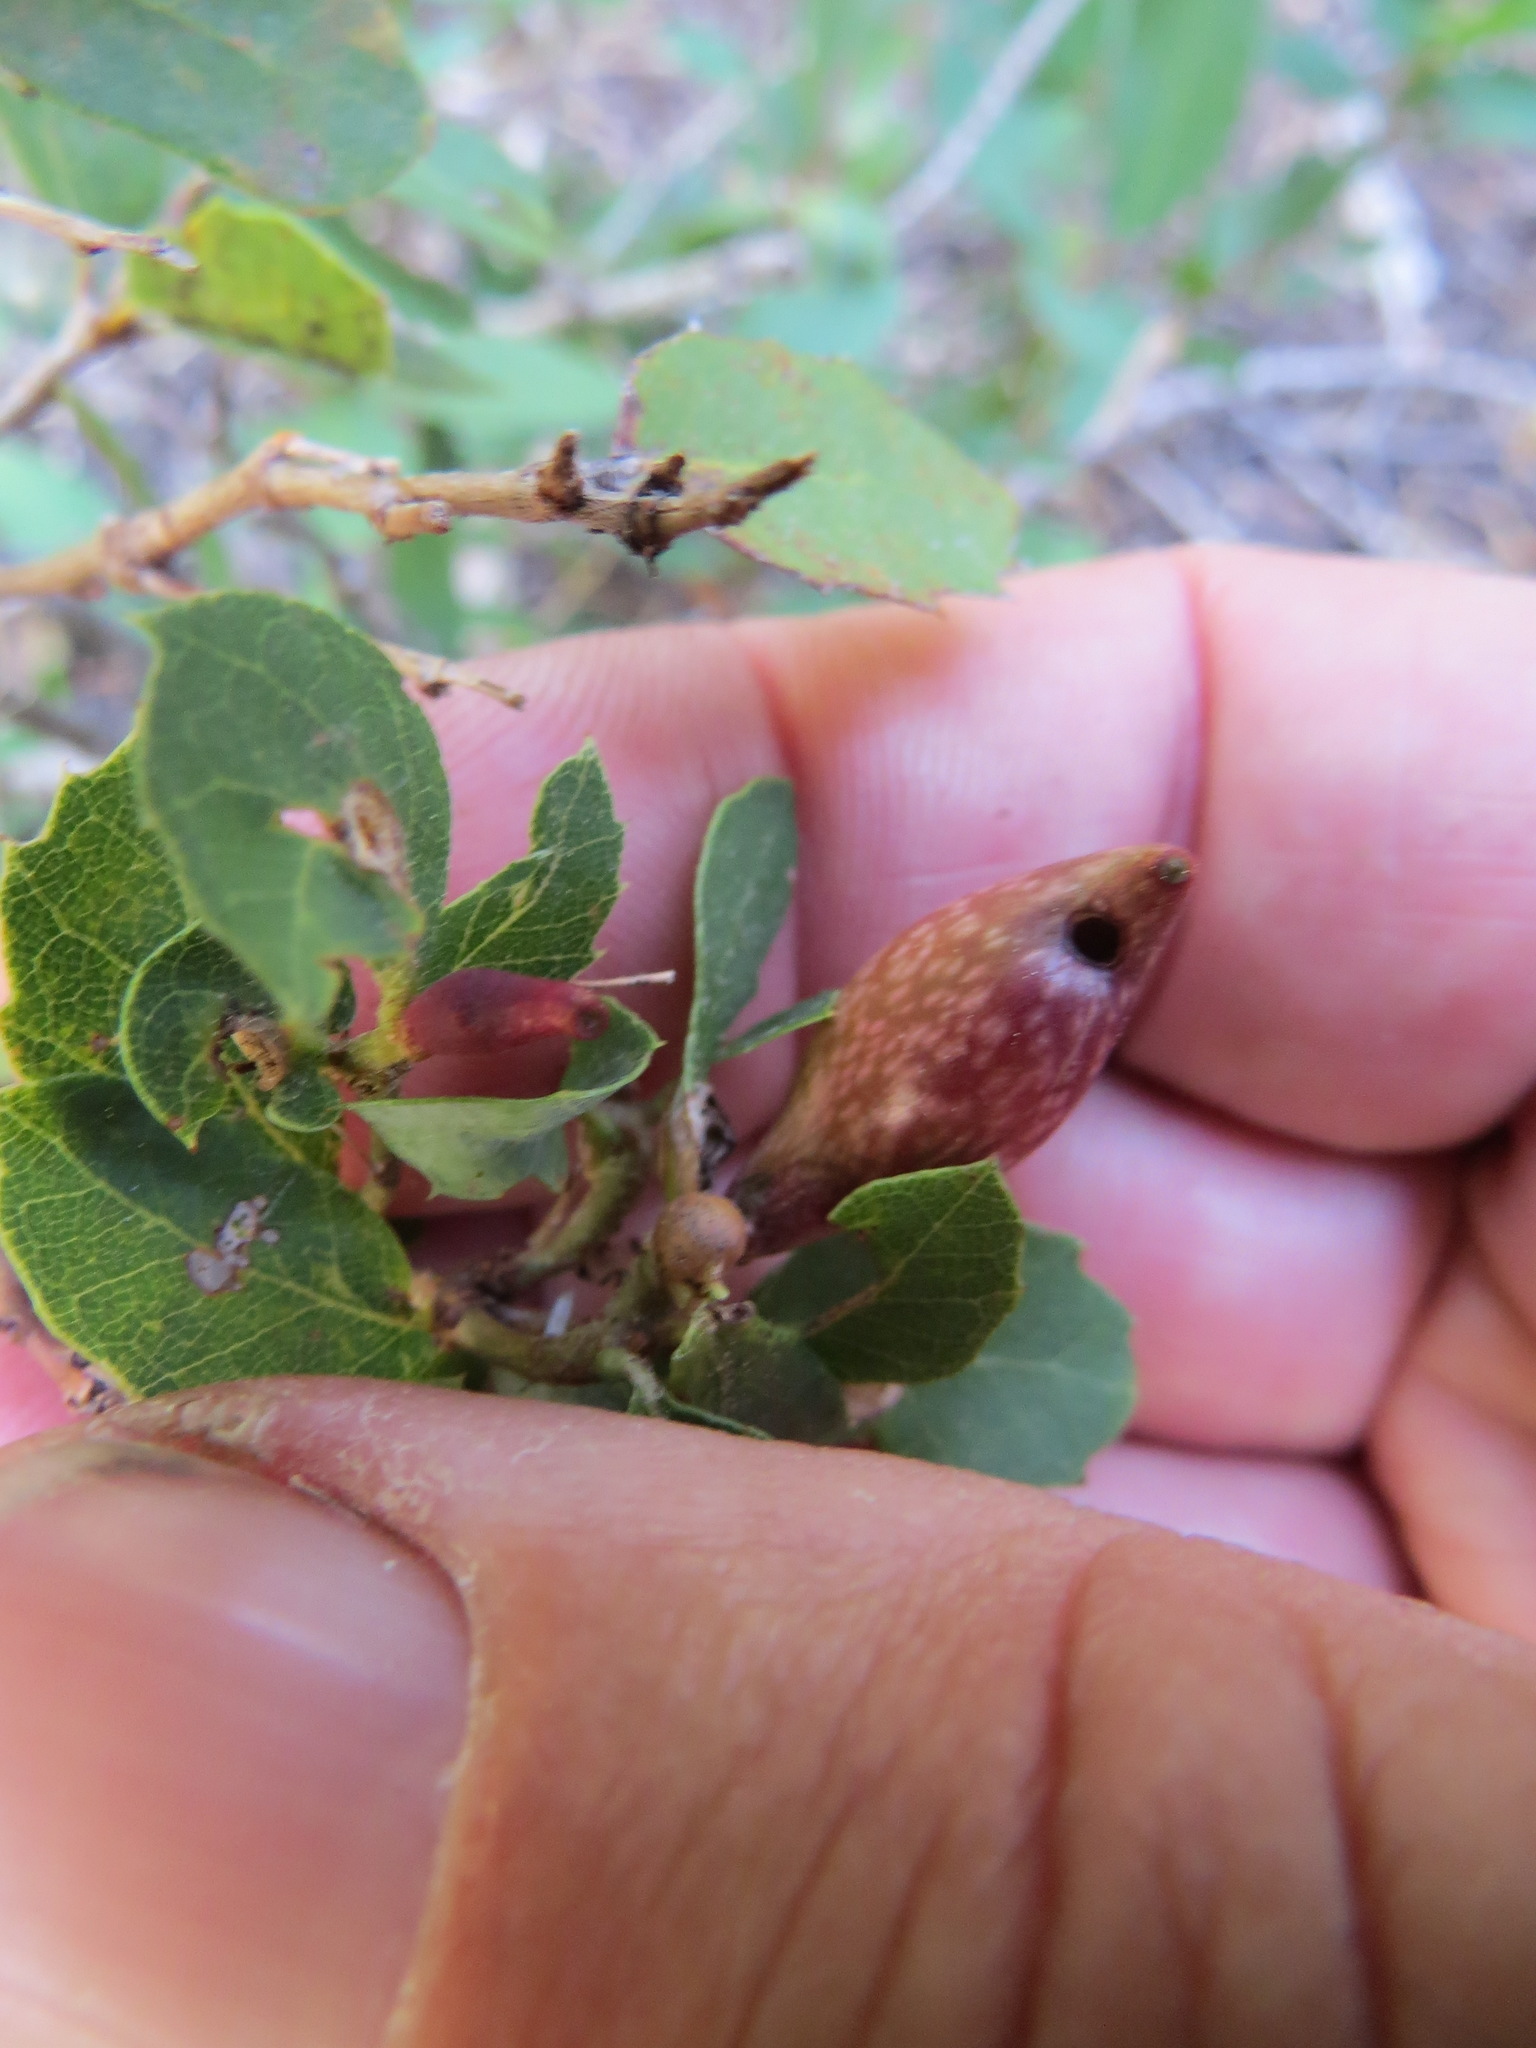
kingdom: Animalia
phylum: Arthropoda
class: Insecta
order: Hymenoptera
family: Cynipidae
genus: Heteroecus
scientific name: Heteroecus pacificus
